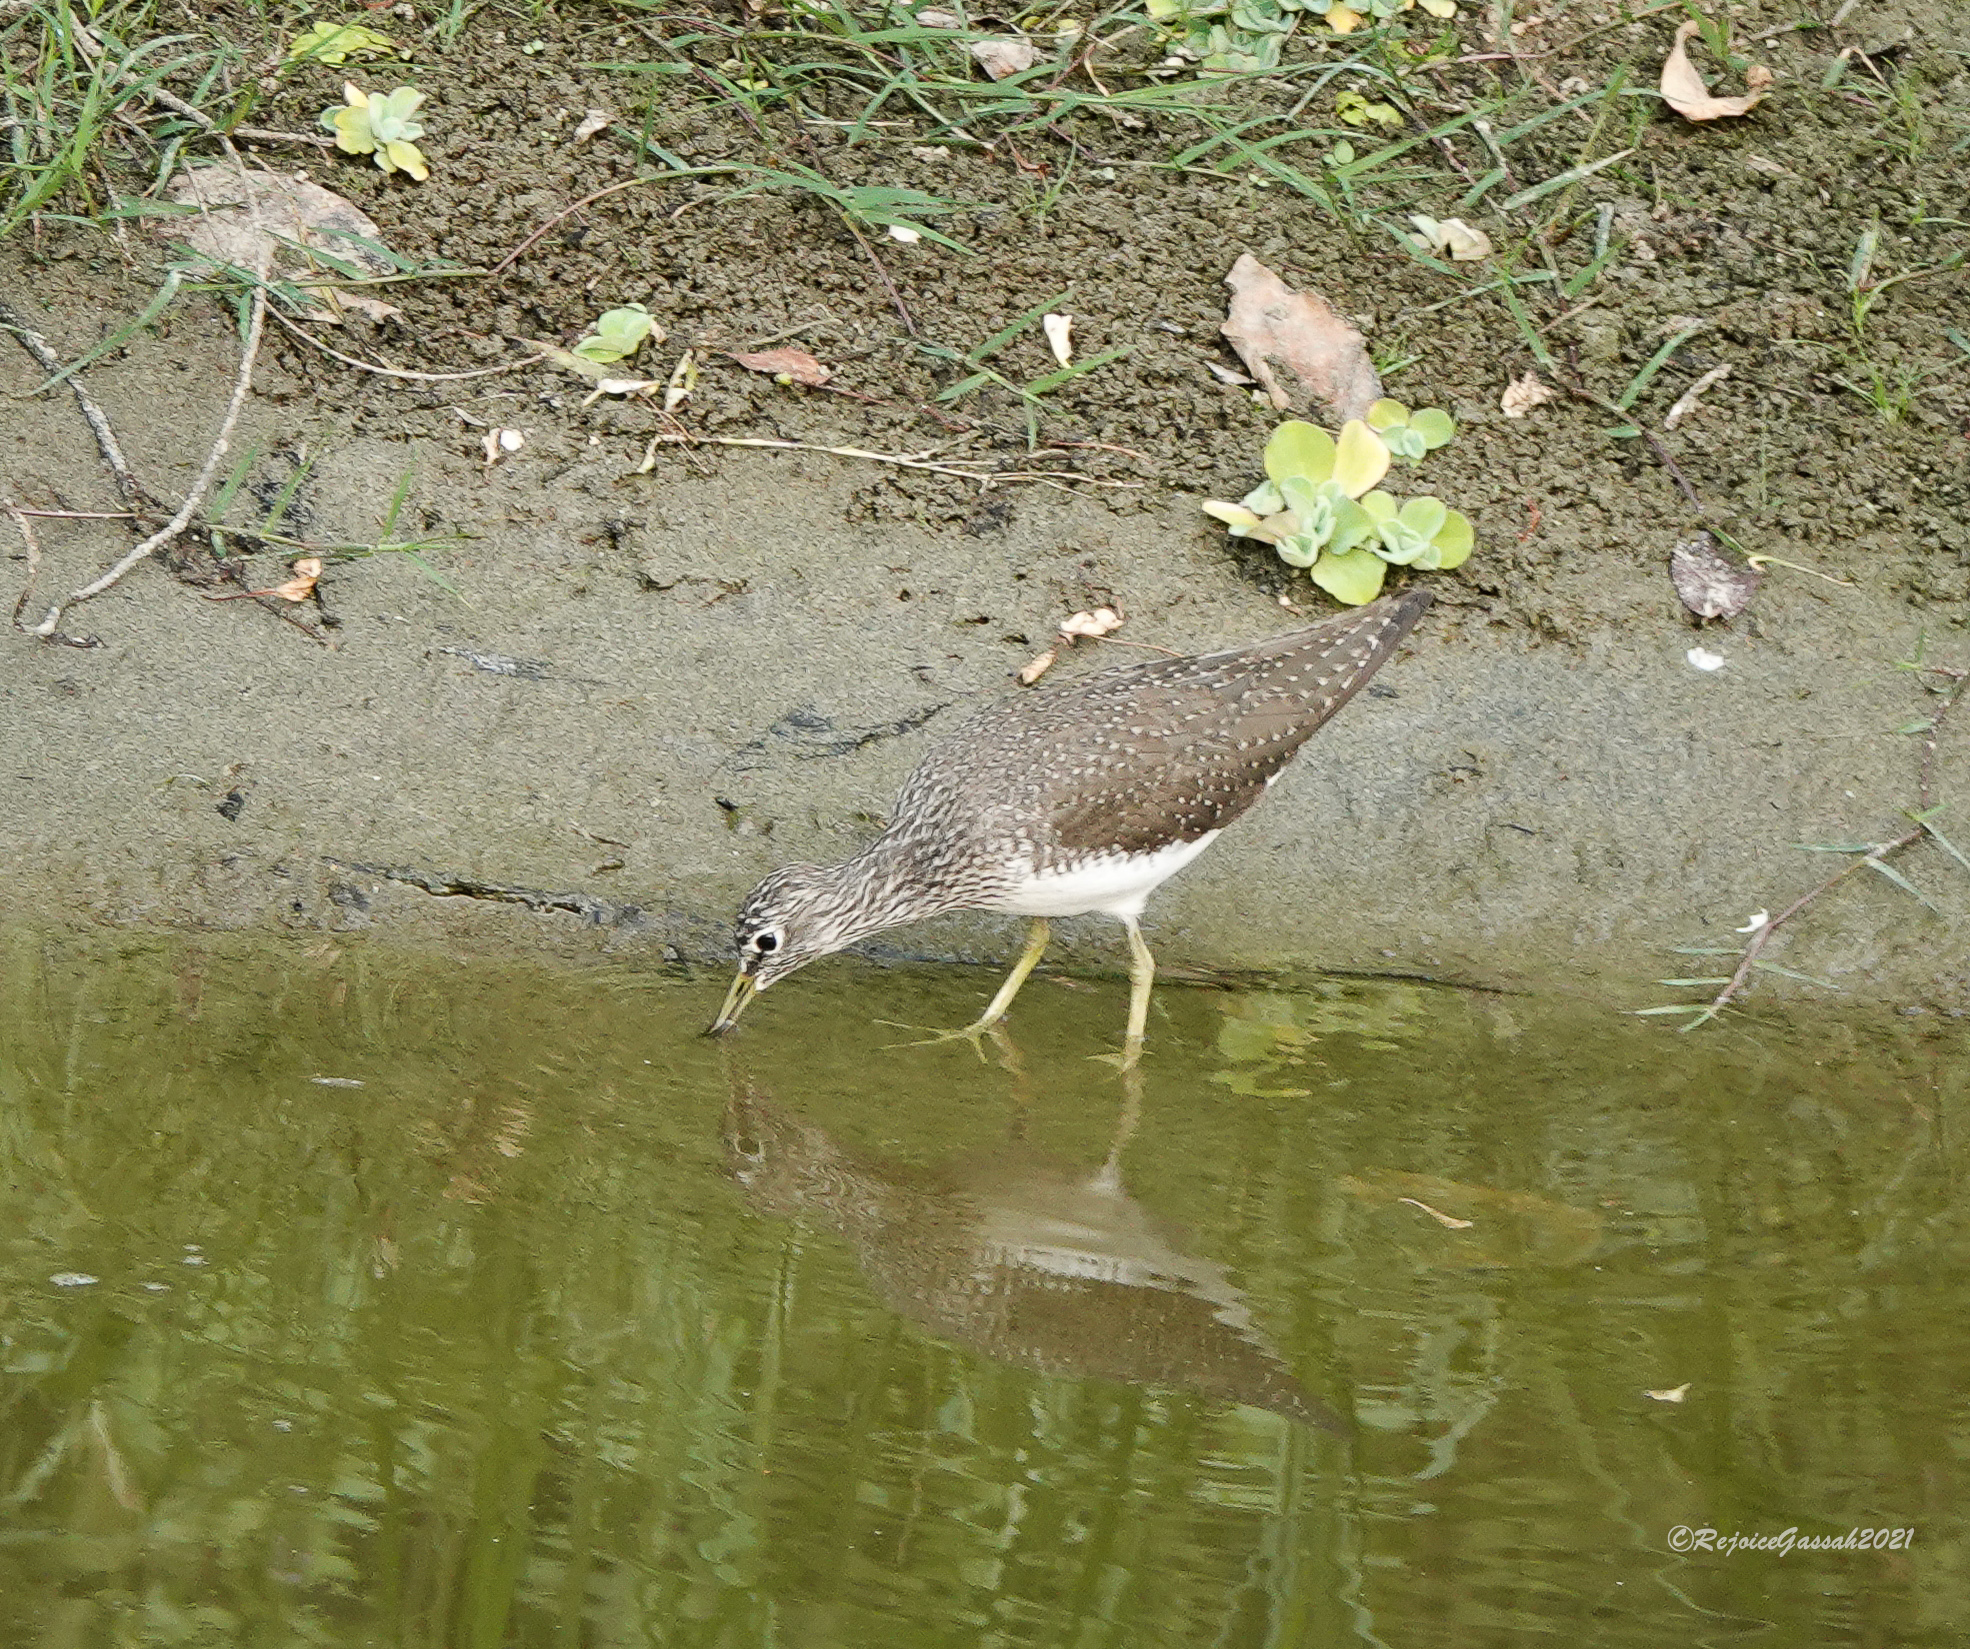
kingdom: Animalia
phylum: Chordata
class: Aves
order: Charadriiformes
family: Scolopacidae
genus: Tringa
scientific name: Tringa ochropus
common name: Green sandpiper
